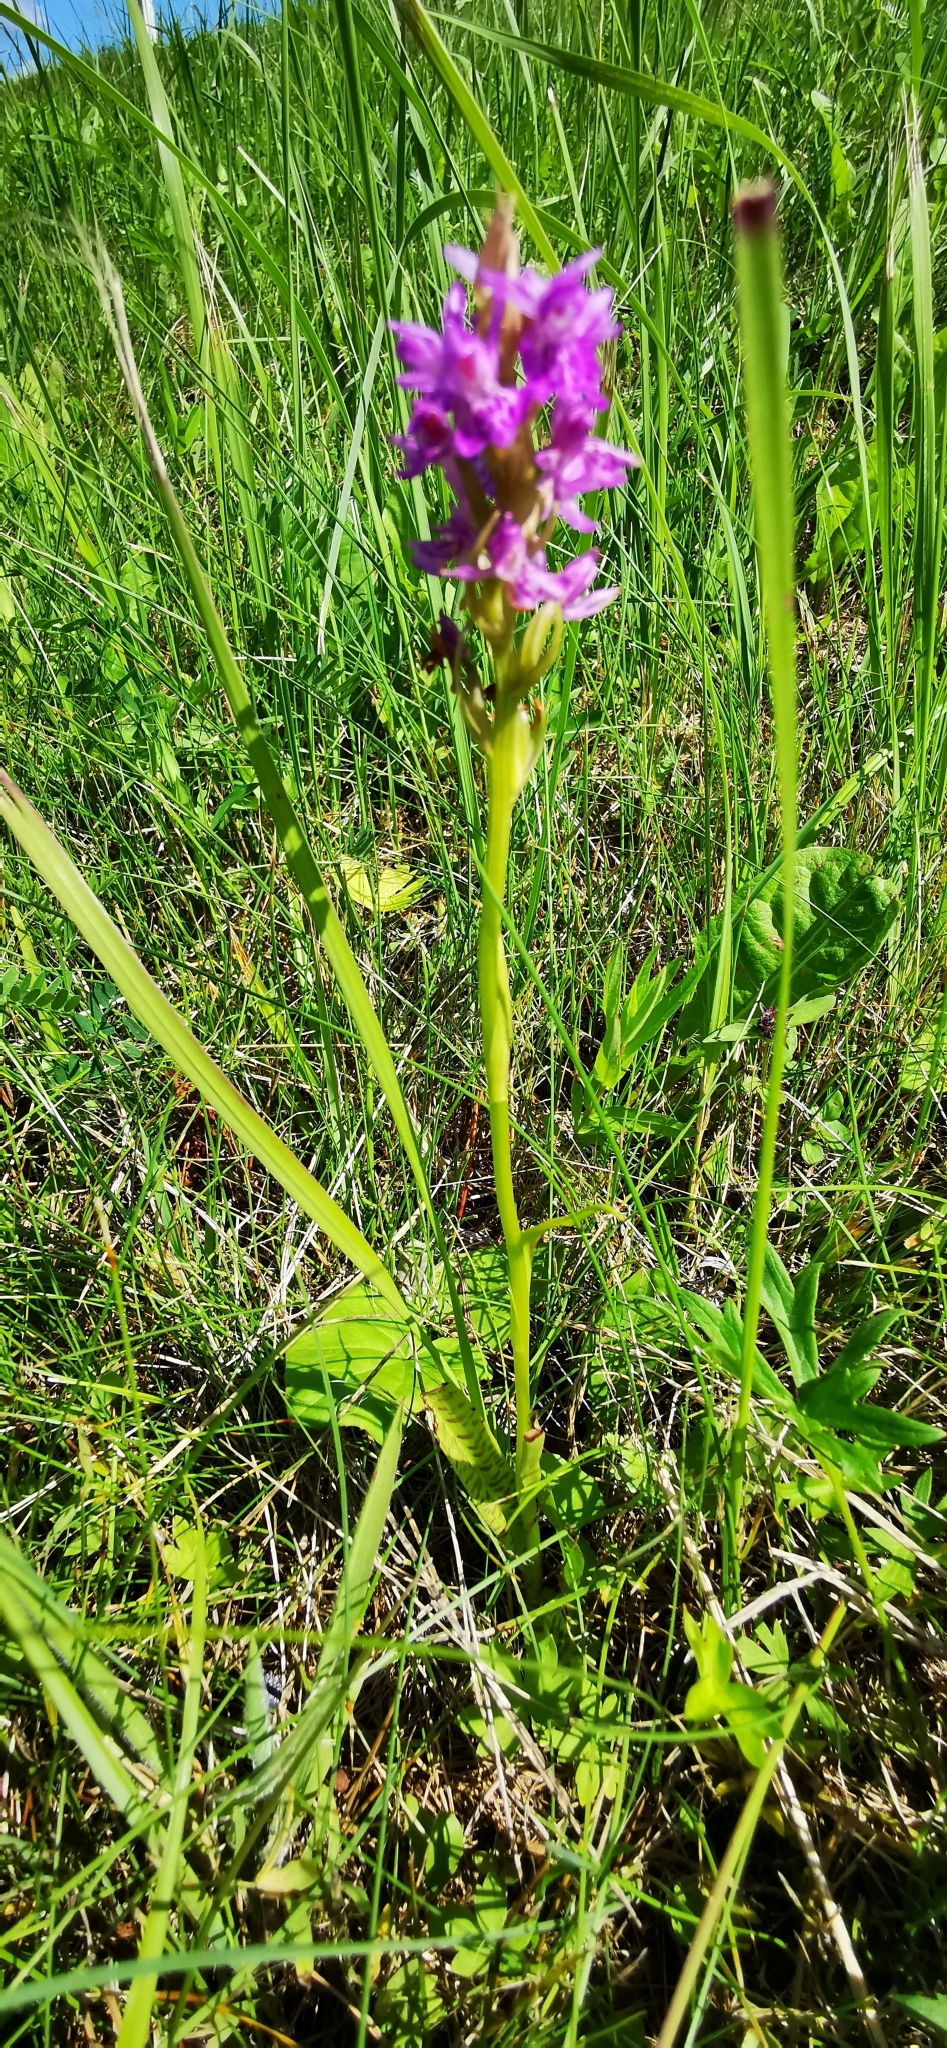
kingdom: Plantae
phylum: Tracheophyta
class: Liliopsida
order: Asparagales
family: Orchidaceae
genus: Dactylorhiza
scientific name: Dactylorhiza majalis
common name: Marsh orchid
